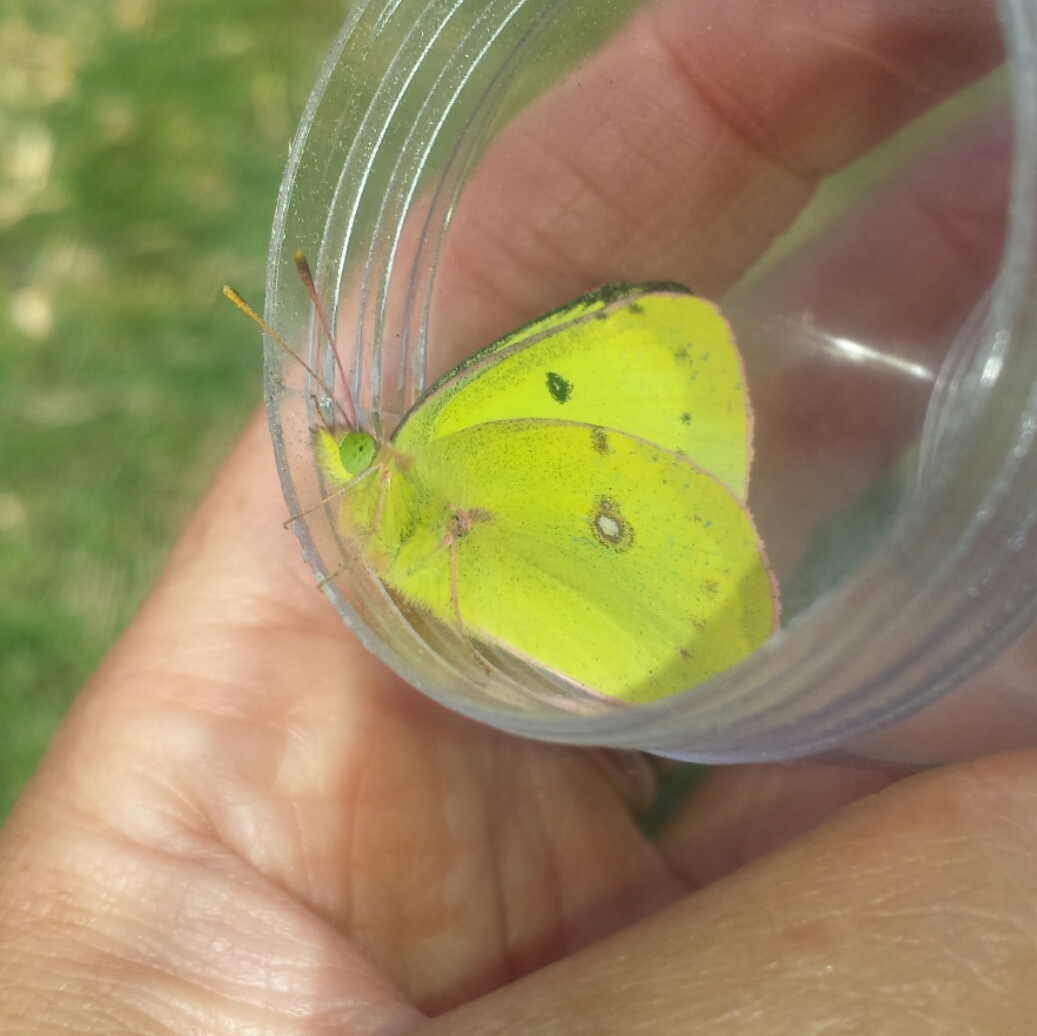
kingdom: Animalia
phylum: Arthropoda
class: Insecta
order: Lepidoptera
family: Pieridae
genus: Colias
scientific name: Colias philodice
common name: Clouded sulphur
